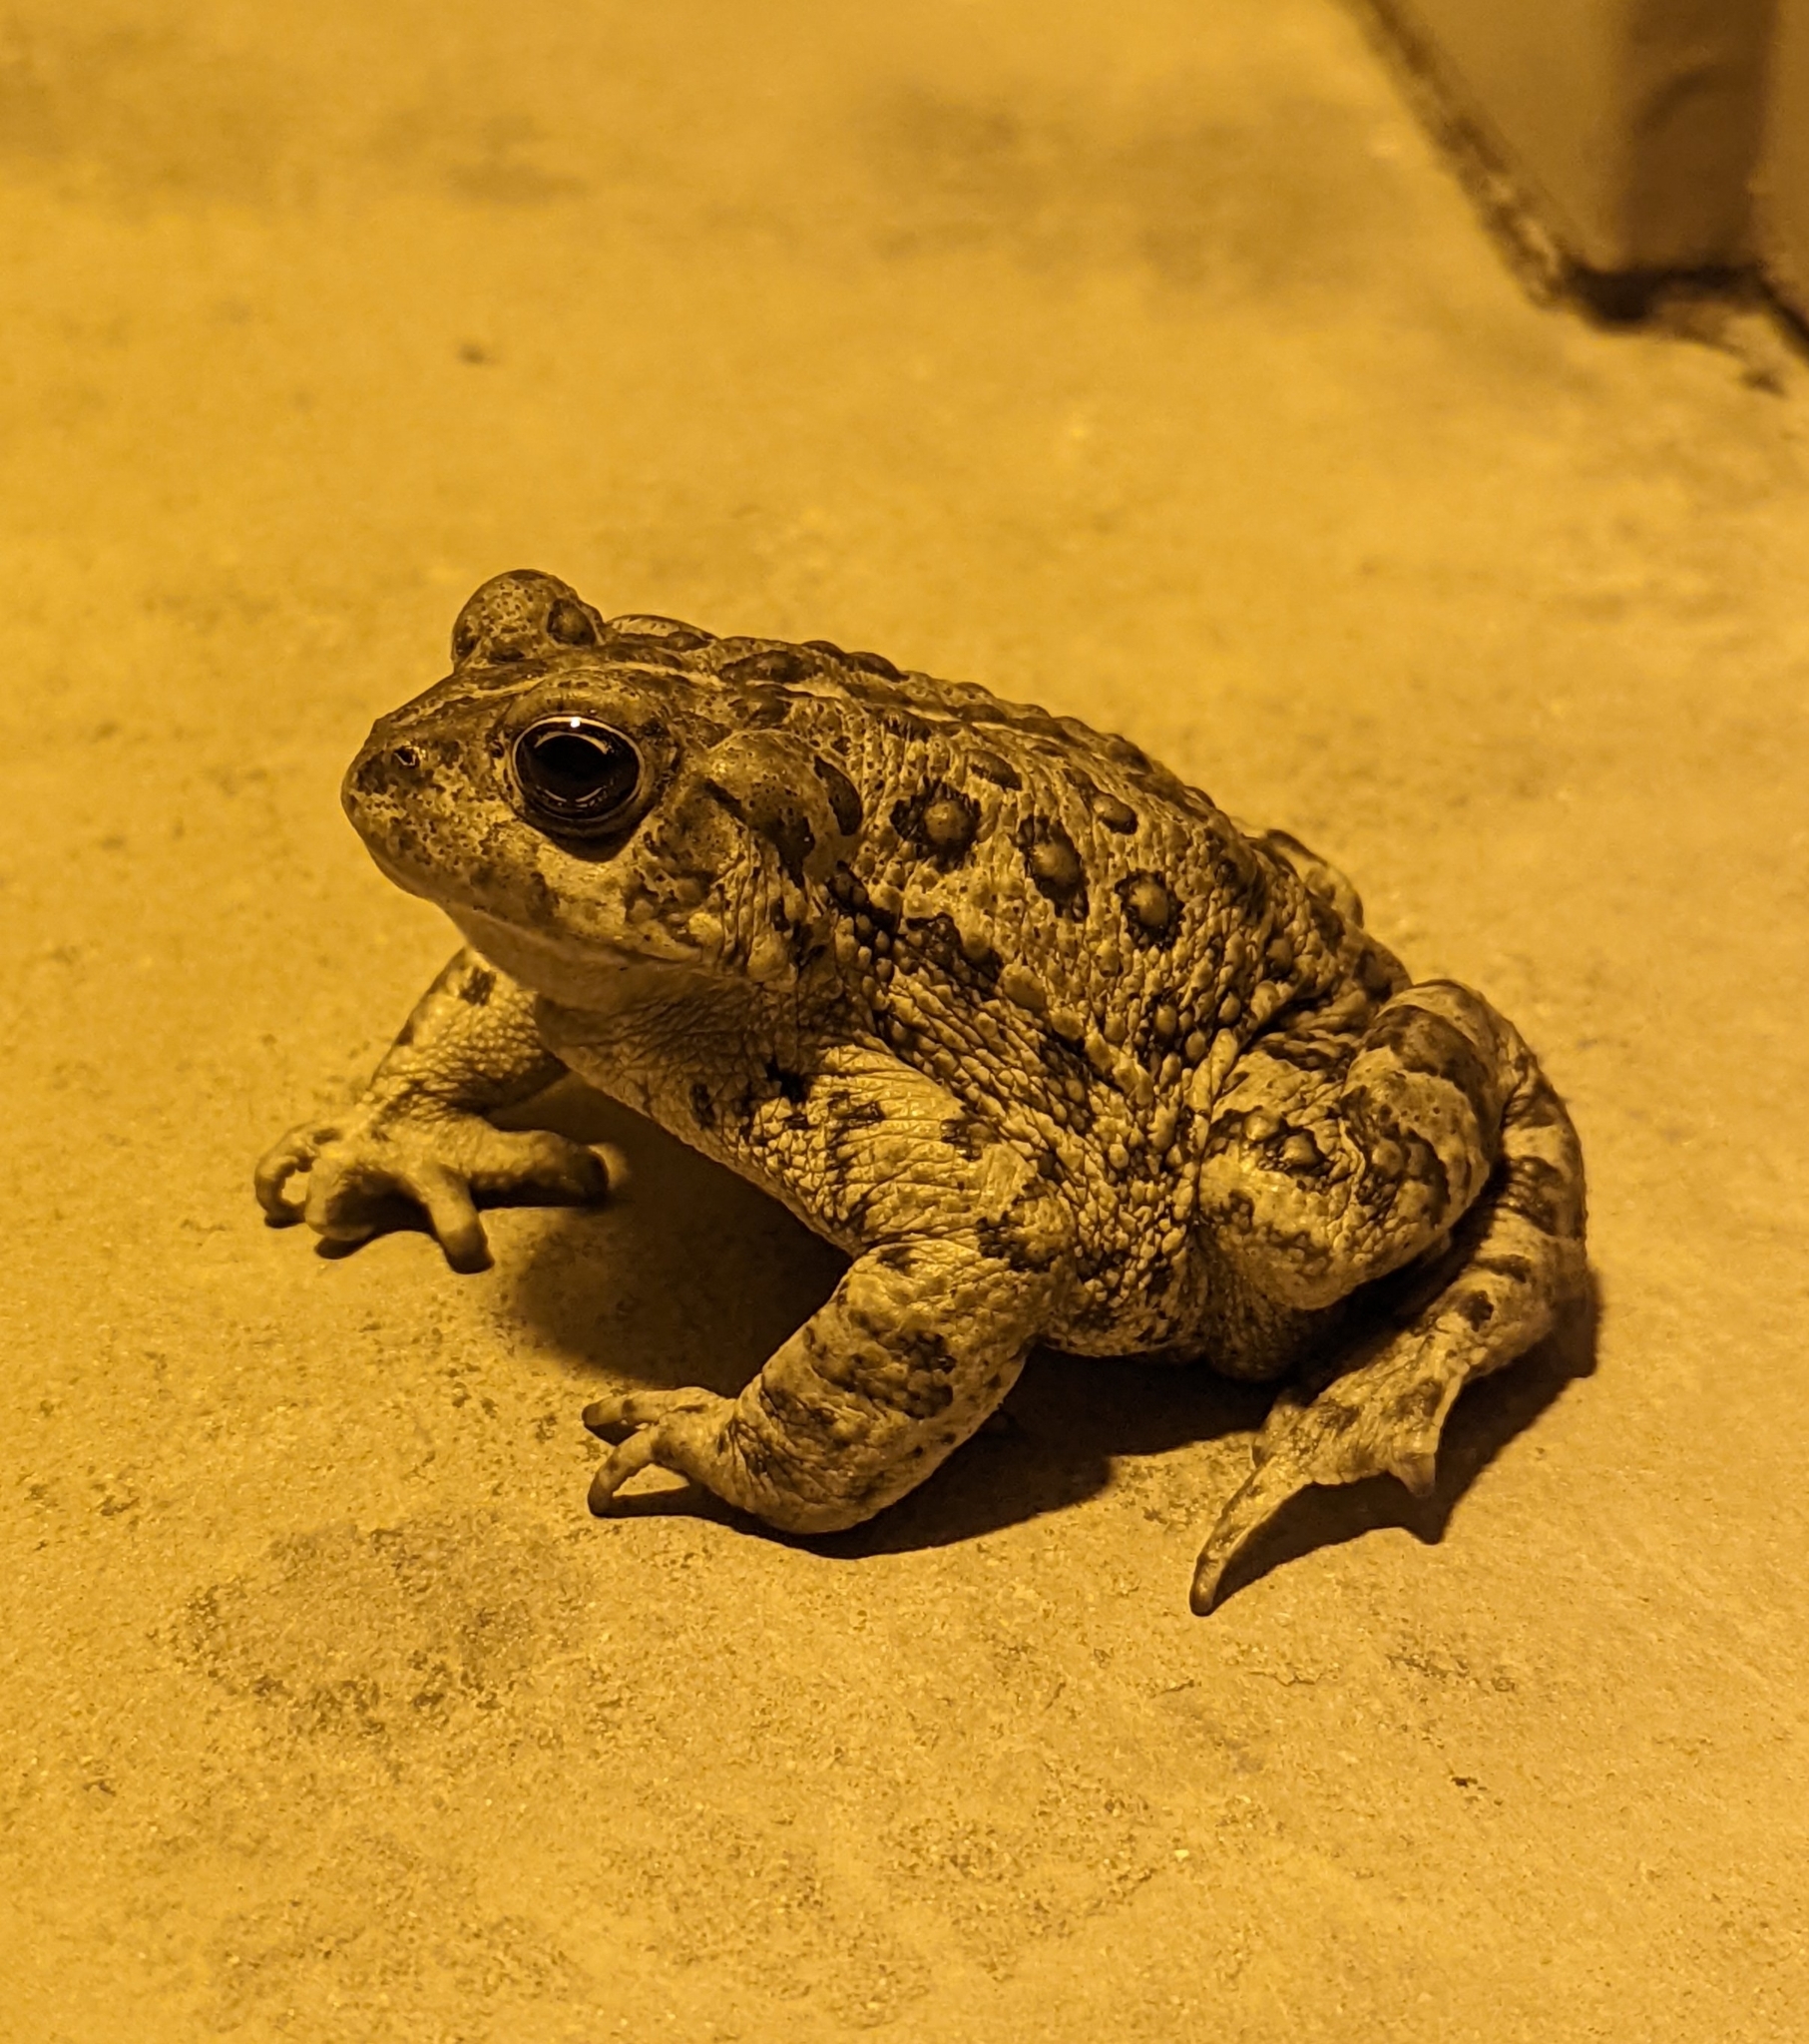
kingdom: Animalia
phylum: Chordata
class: Amphibia
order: Anura
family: Bufonidae
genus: Anaxyrus
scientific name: Anaxyrus boreas
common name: Western toad
